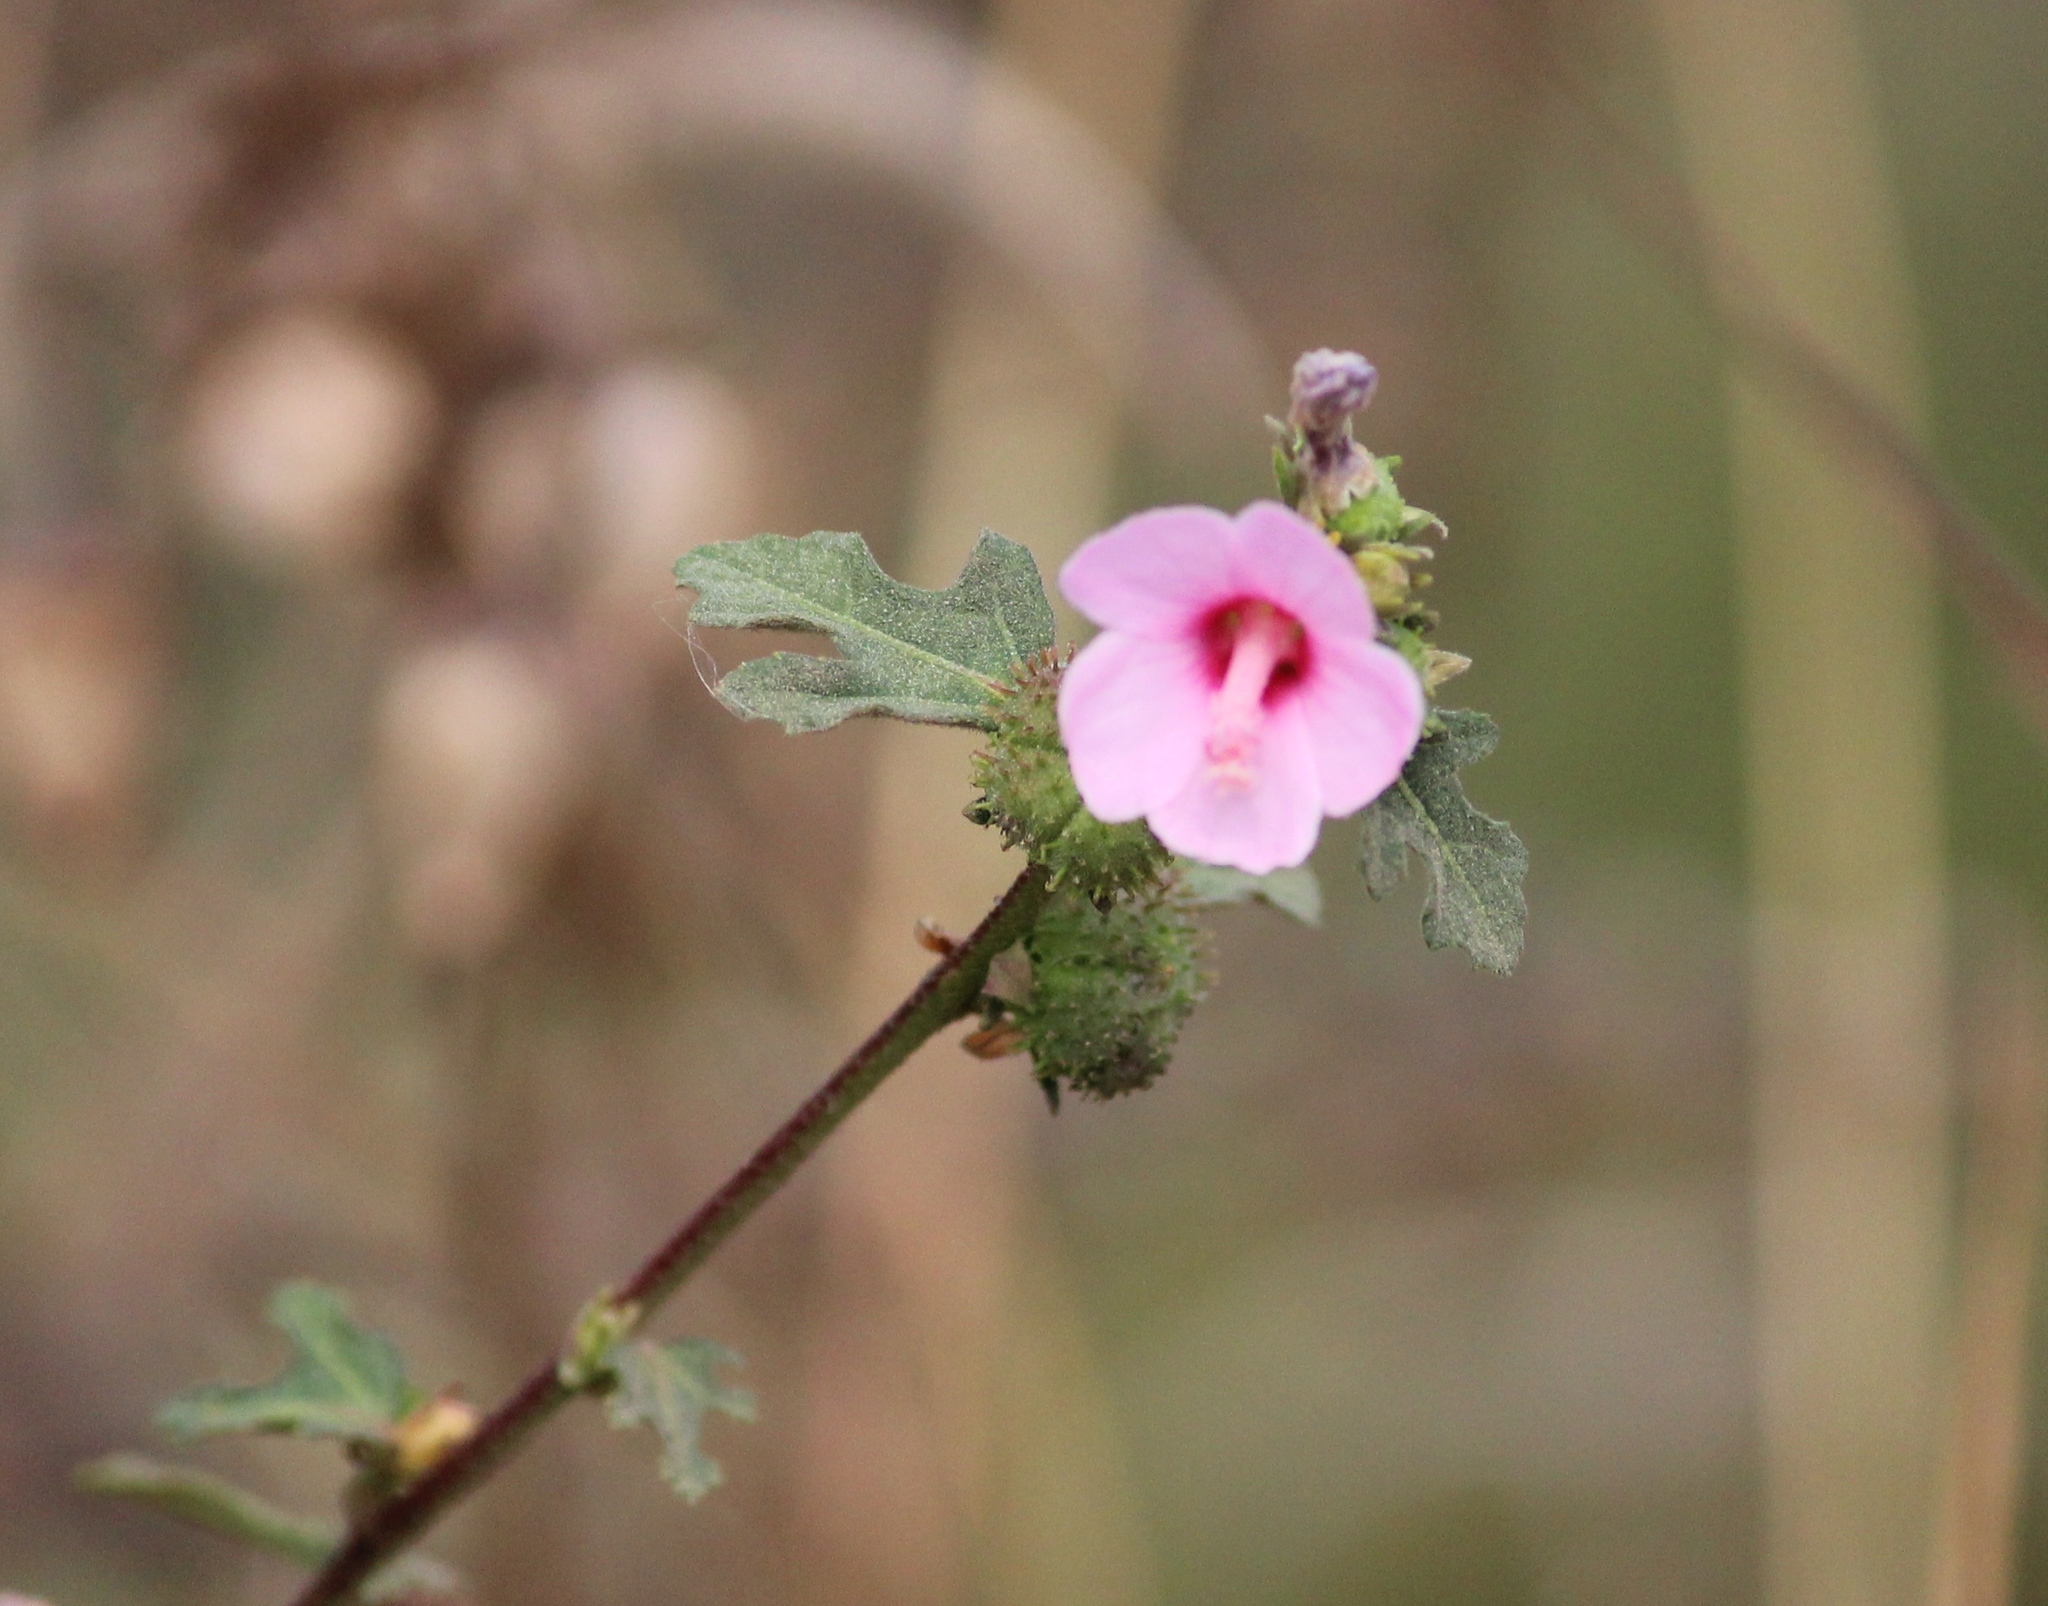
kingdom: Plantae
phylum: Tracheophyta
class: Magnoliopsida
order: Malvales
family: Malvaceae
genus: Urena
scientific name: Urena procumbens
